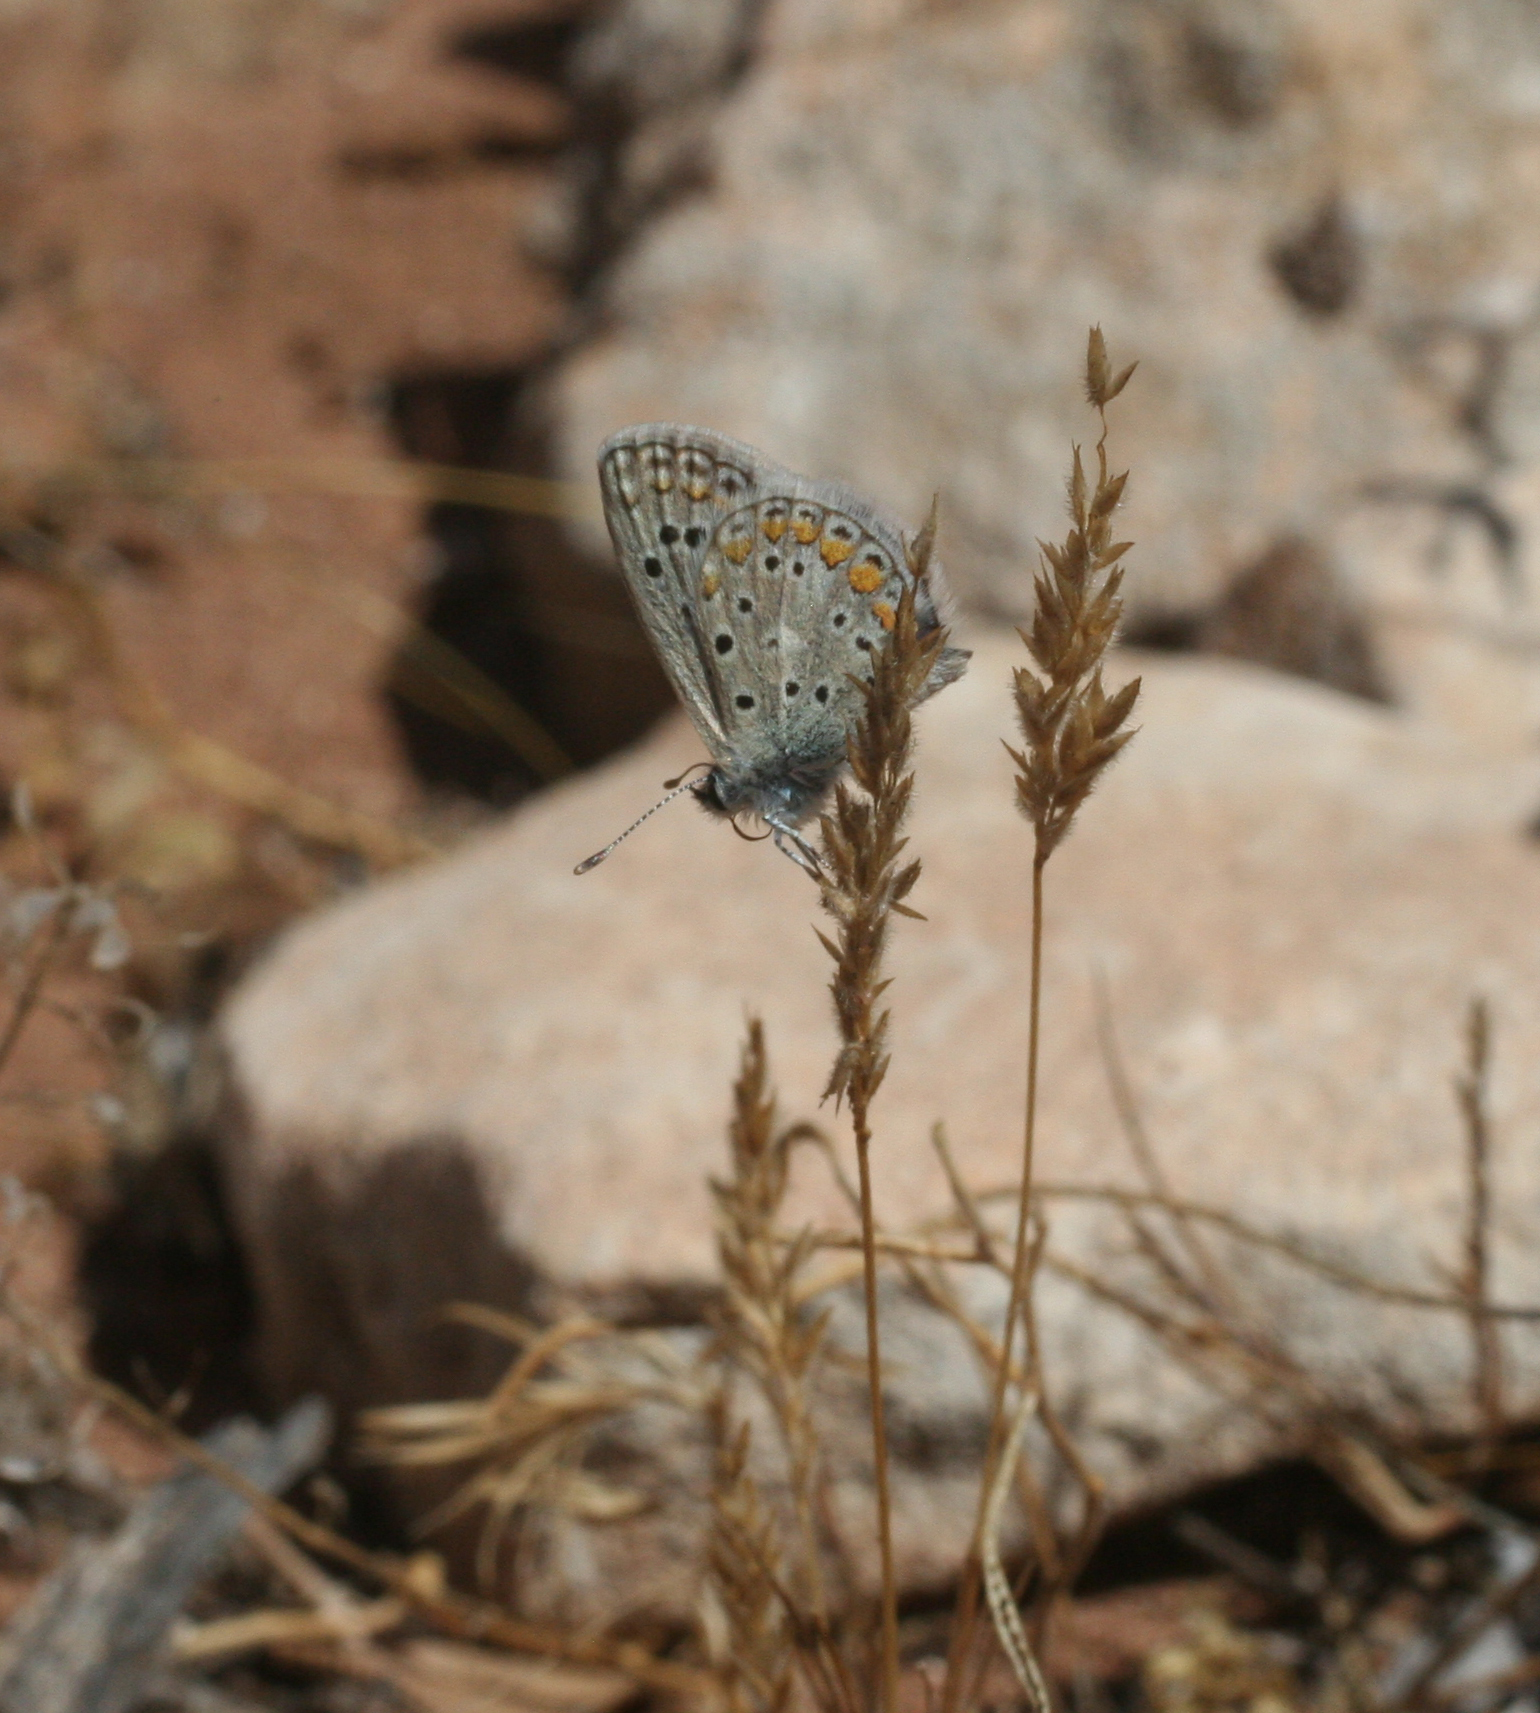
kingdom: Animalia
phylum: Arthropoda
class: Insecta
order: Lepidoptera
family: Lycaenidae
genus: Polyommatus
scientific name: Polyommatus celina
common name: Austaut's blue
